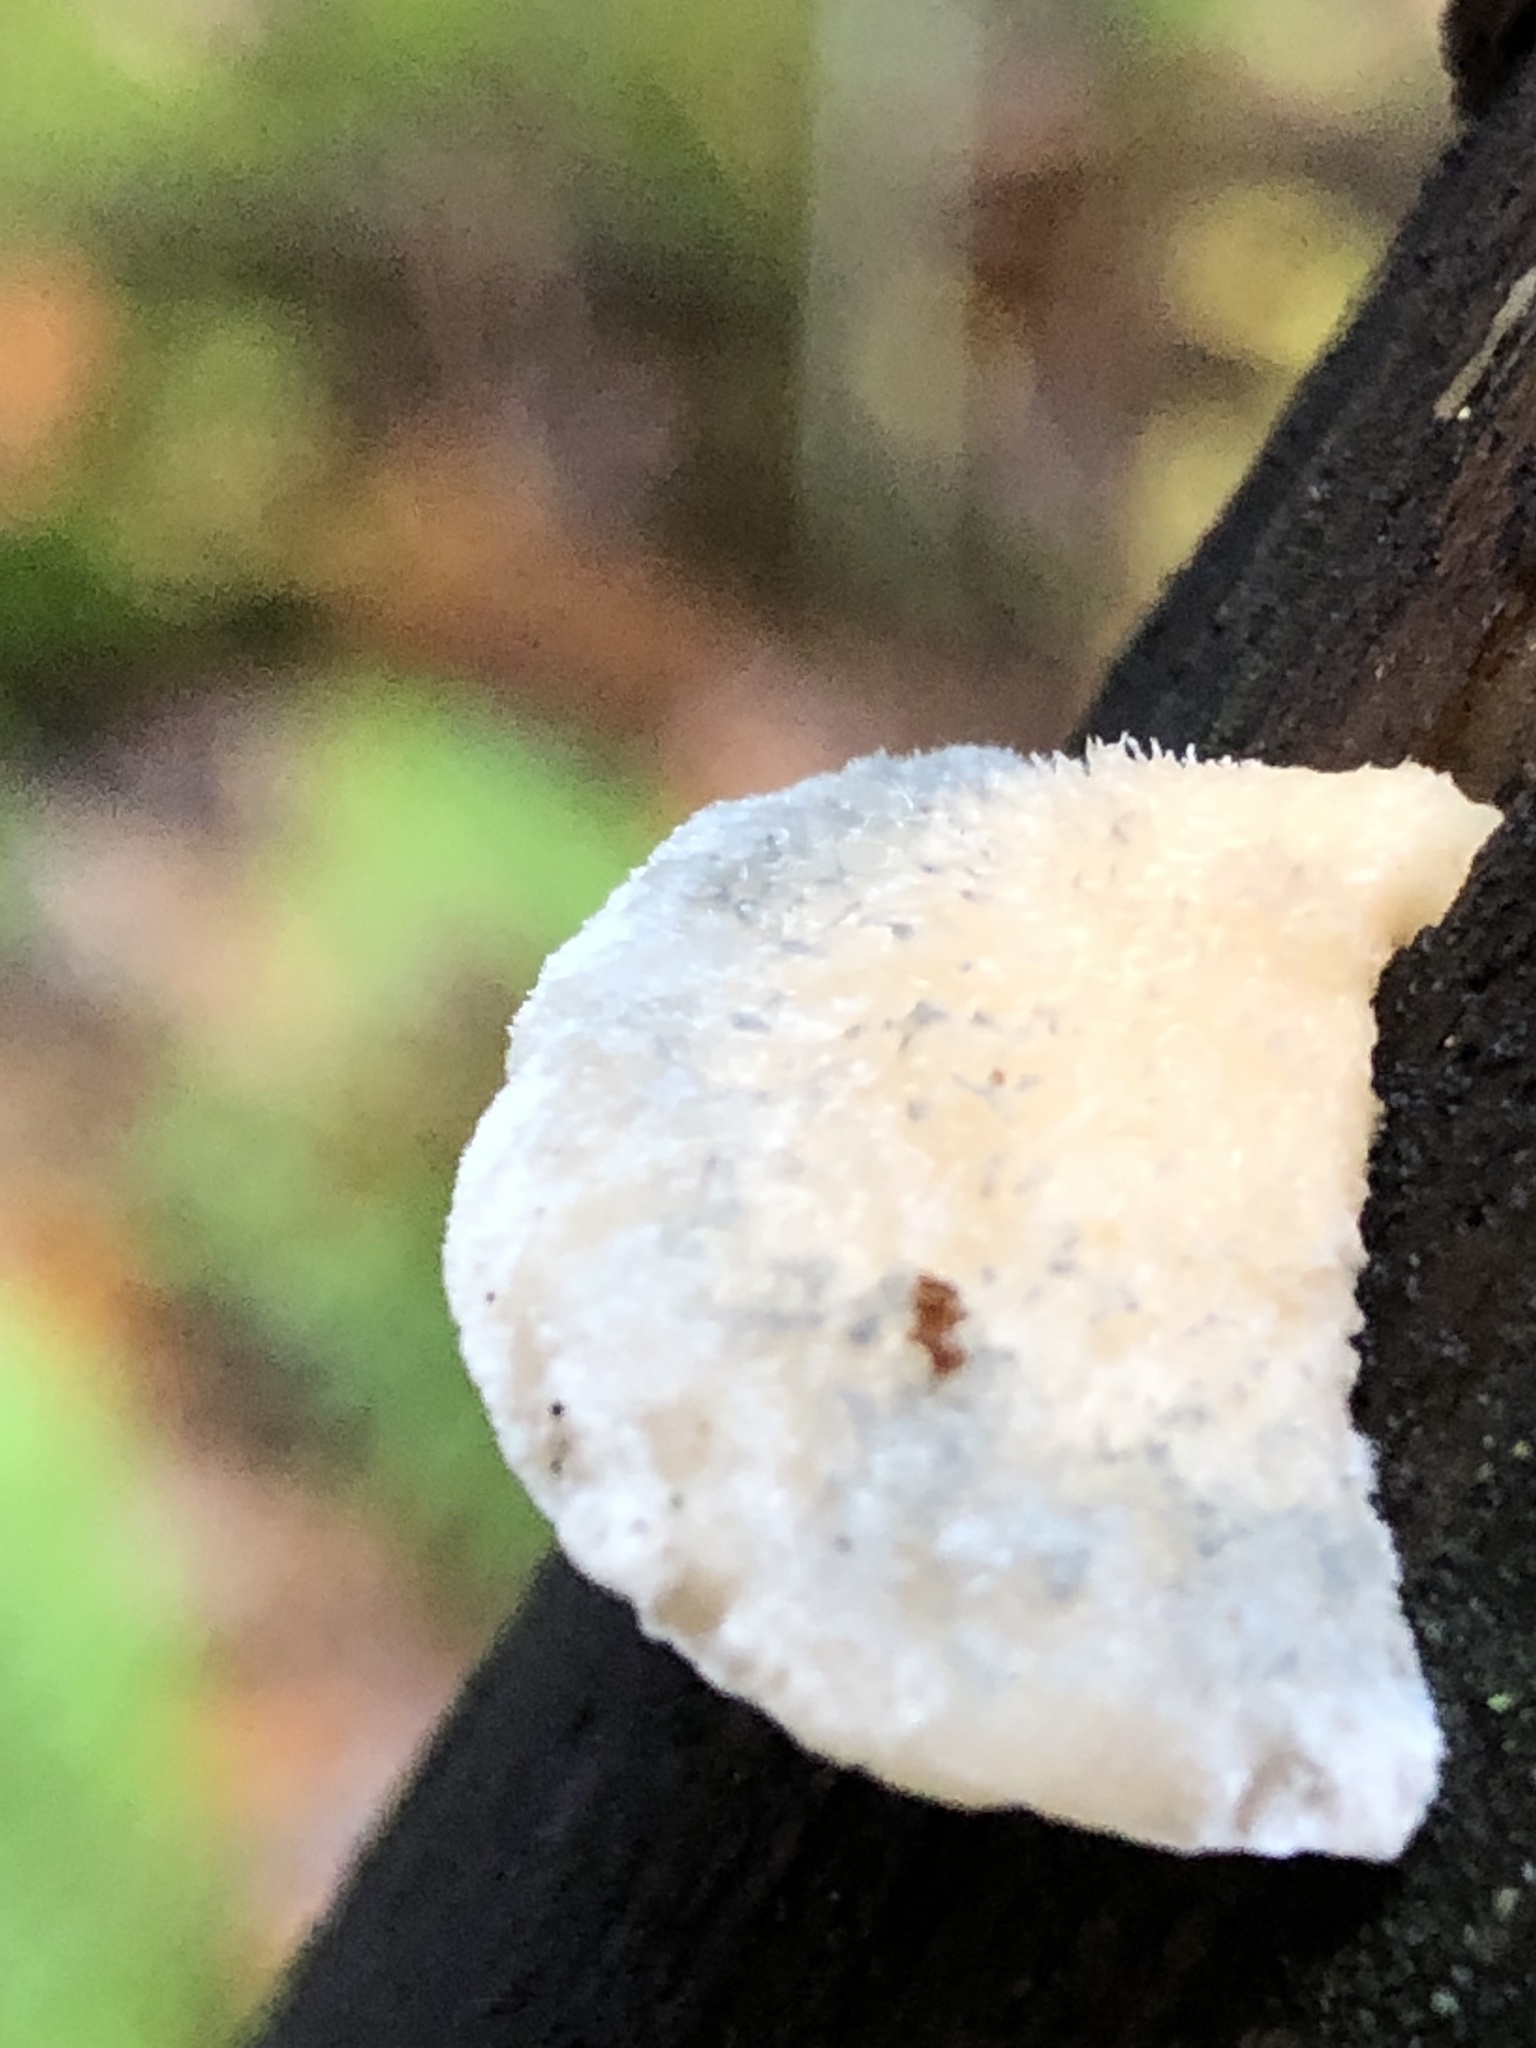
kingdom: Fungi
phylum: Basidiomycota
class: Agaricomycetes
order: Polyporales
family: Polyporaceae
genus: Cyanosporus
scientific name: Cyanosporus livens
